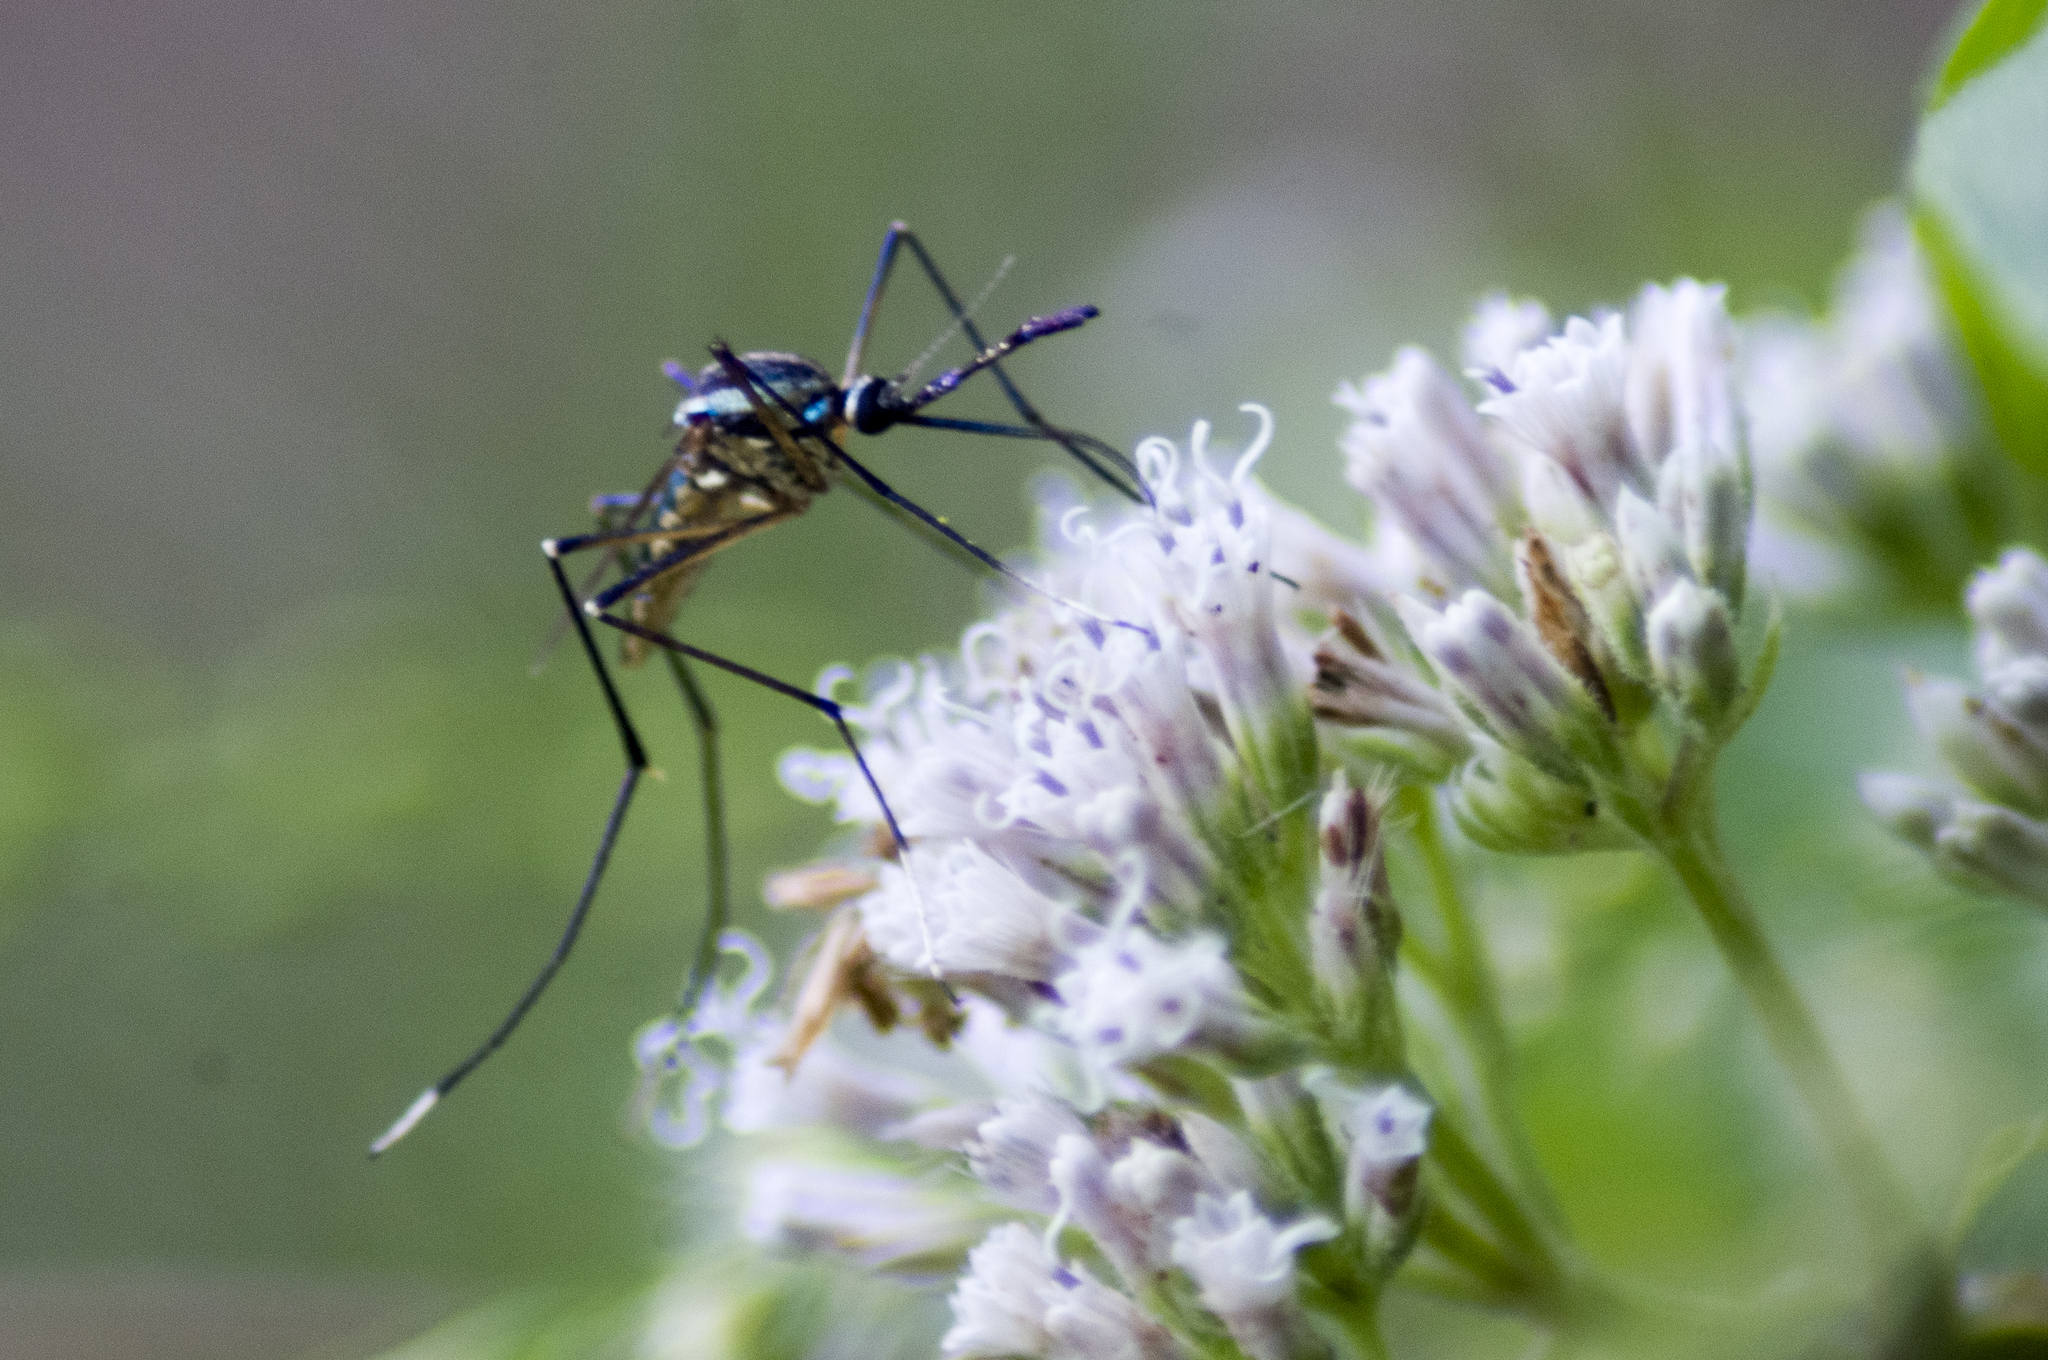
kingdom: Animalia
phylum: Arthropoda
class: Insecta
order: Diptera
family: Culicidae
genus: Toxorhynchites
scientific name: Toxorhynchites rutilus
